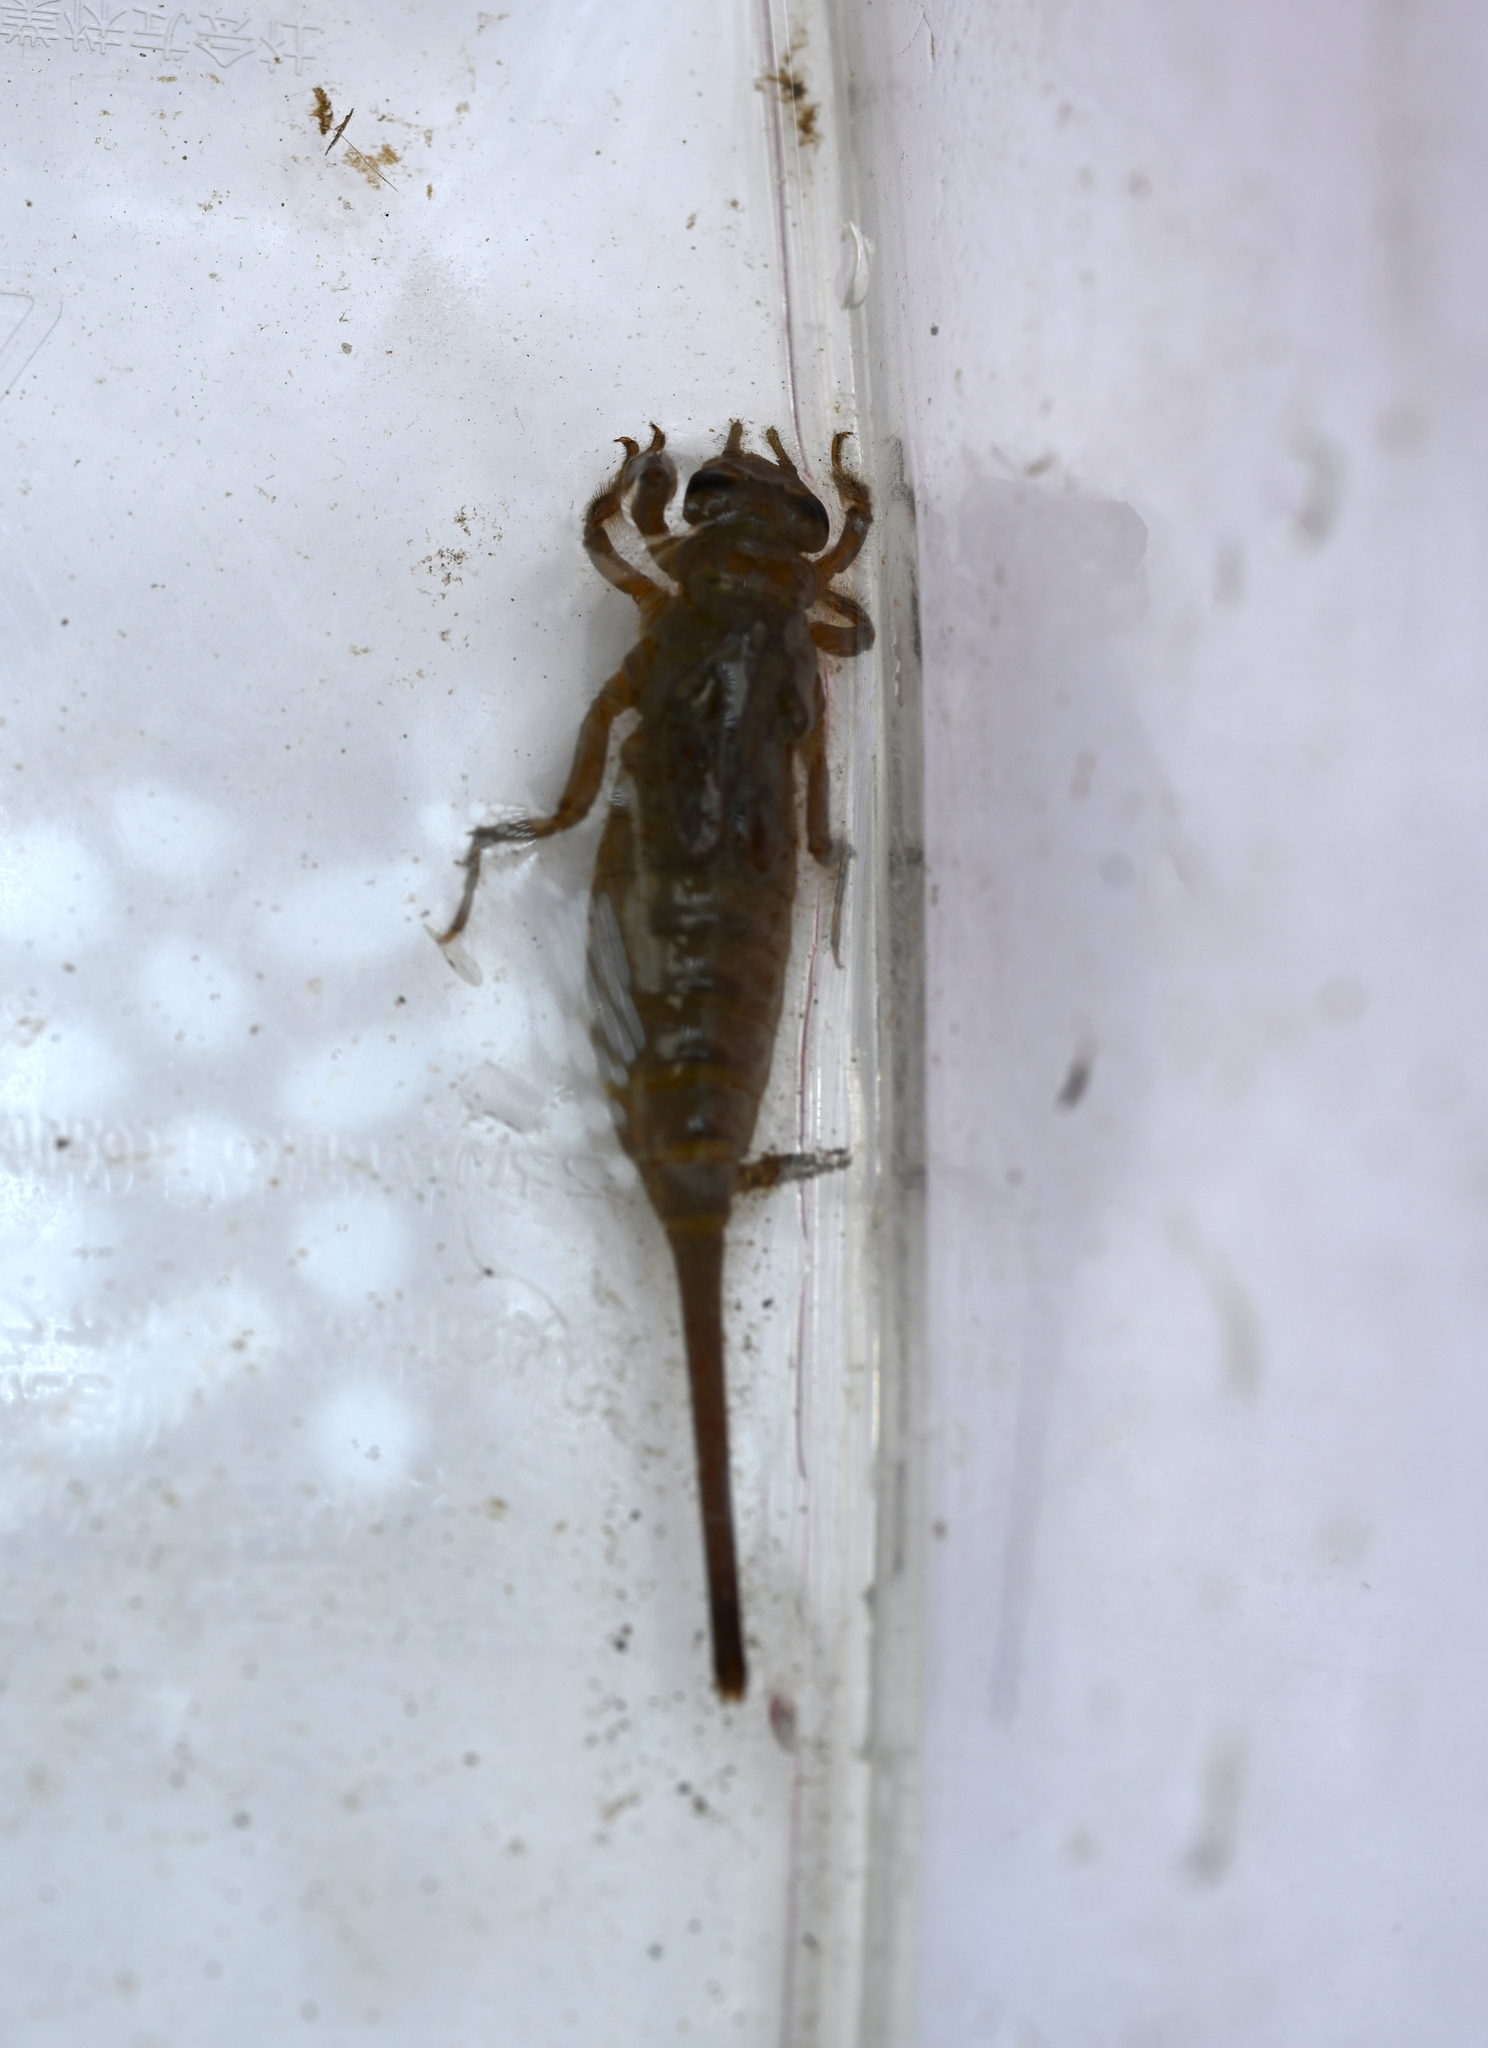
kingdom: Animalia
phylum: Arthropoda
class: Insecta
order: Odonata
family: Gomphidae
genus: Aphylla
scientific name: Aphylla williamsoni
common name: Two-striped forceptail
